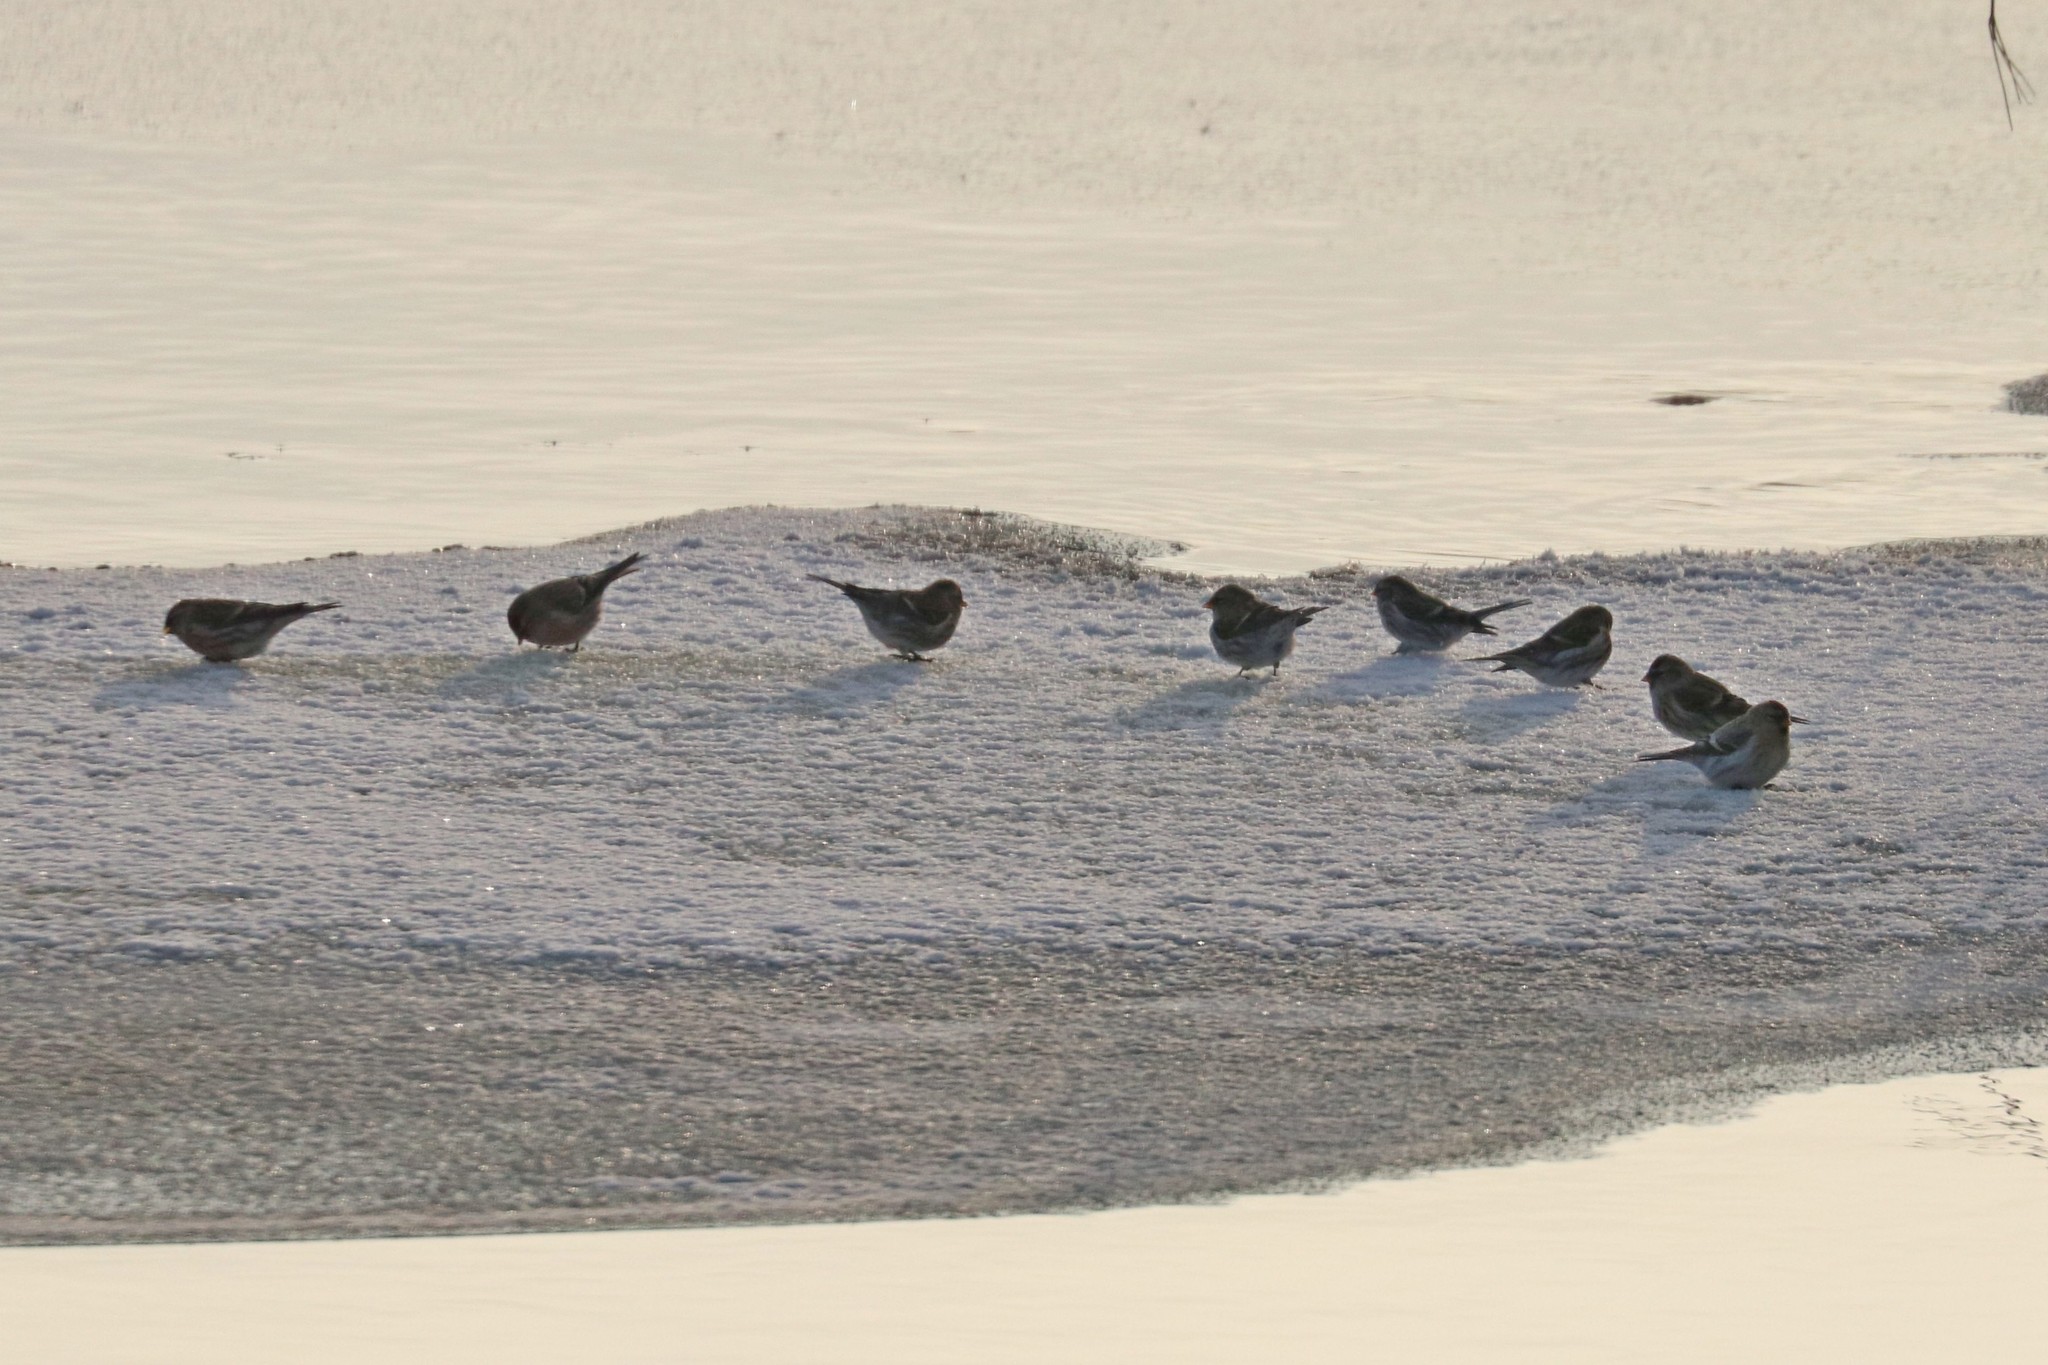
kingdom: Animalia
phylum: Chordata
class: Aves
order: Passeriformes
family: Fringillidae
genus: Acanthis
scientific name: Acanthis flammea
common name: Common redpoll
